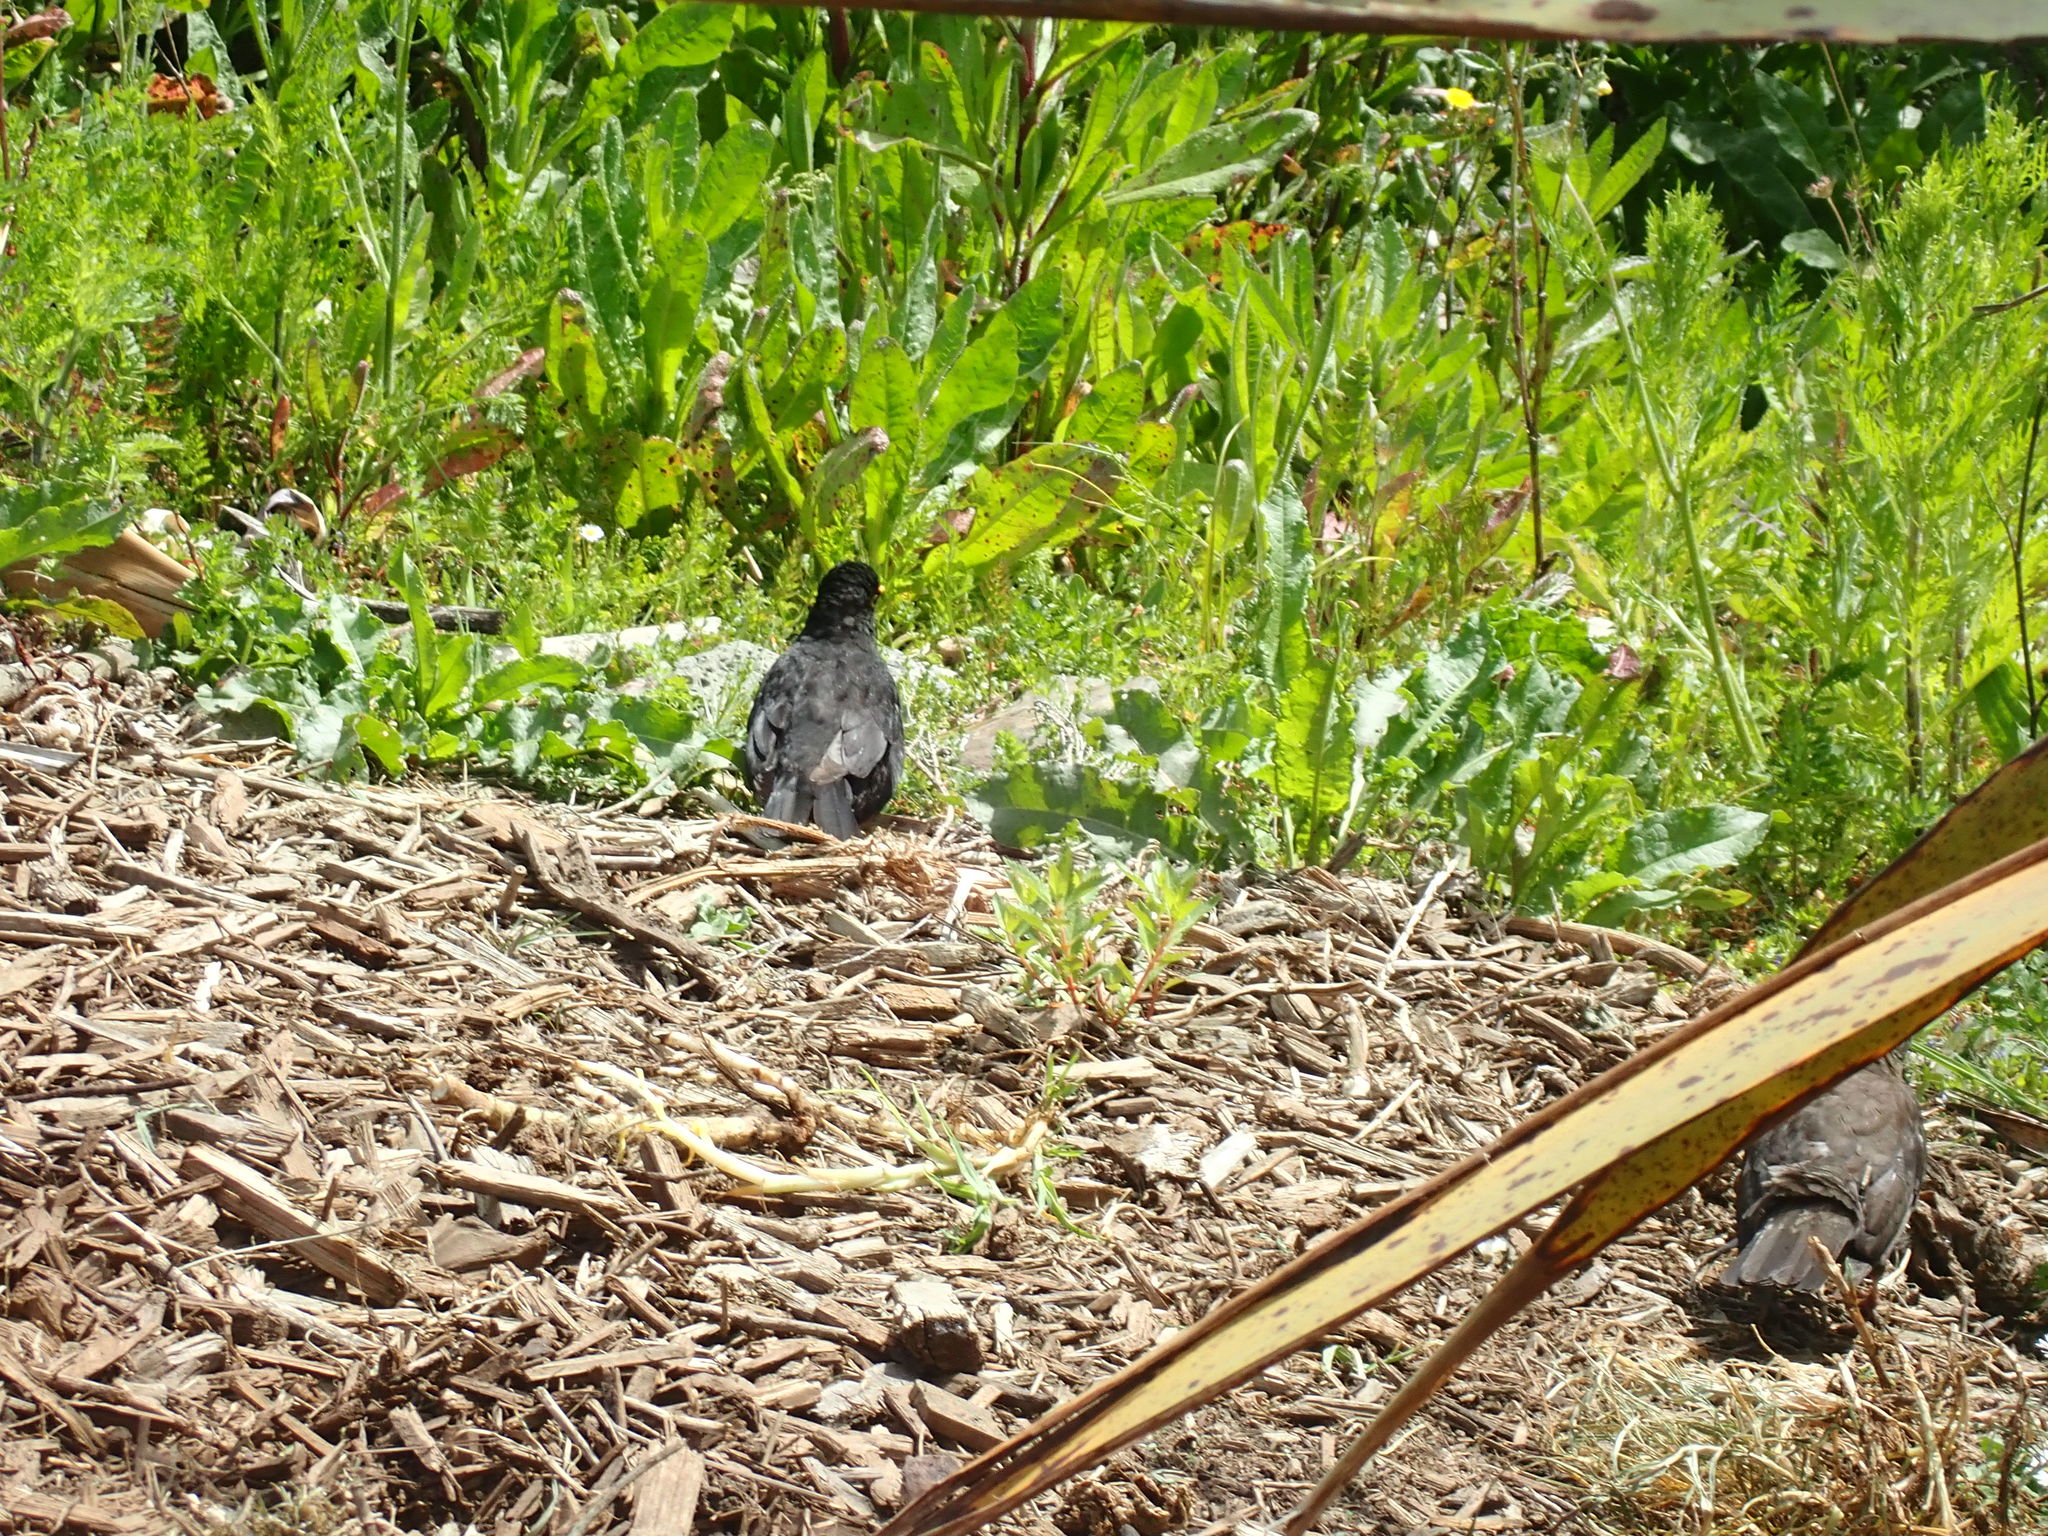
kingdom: Animalia
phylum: Chordata
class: Aves
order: Passeriformes
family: Turdidae
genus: Turdus
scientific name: Turdus merula
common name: Common blackbird
